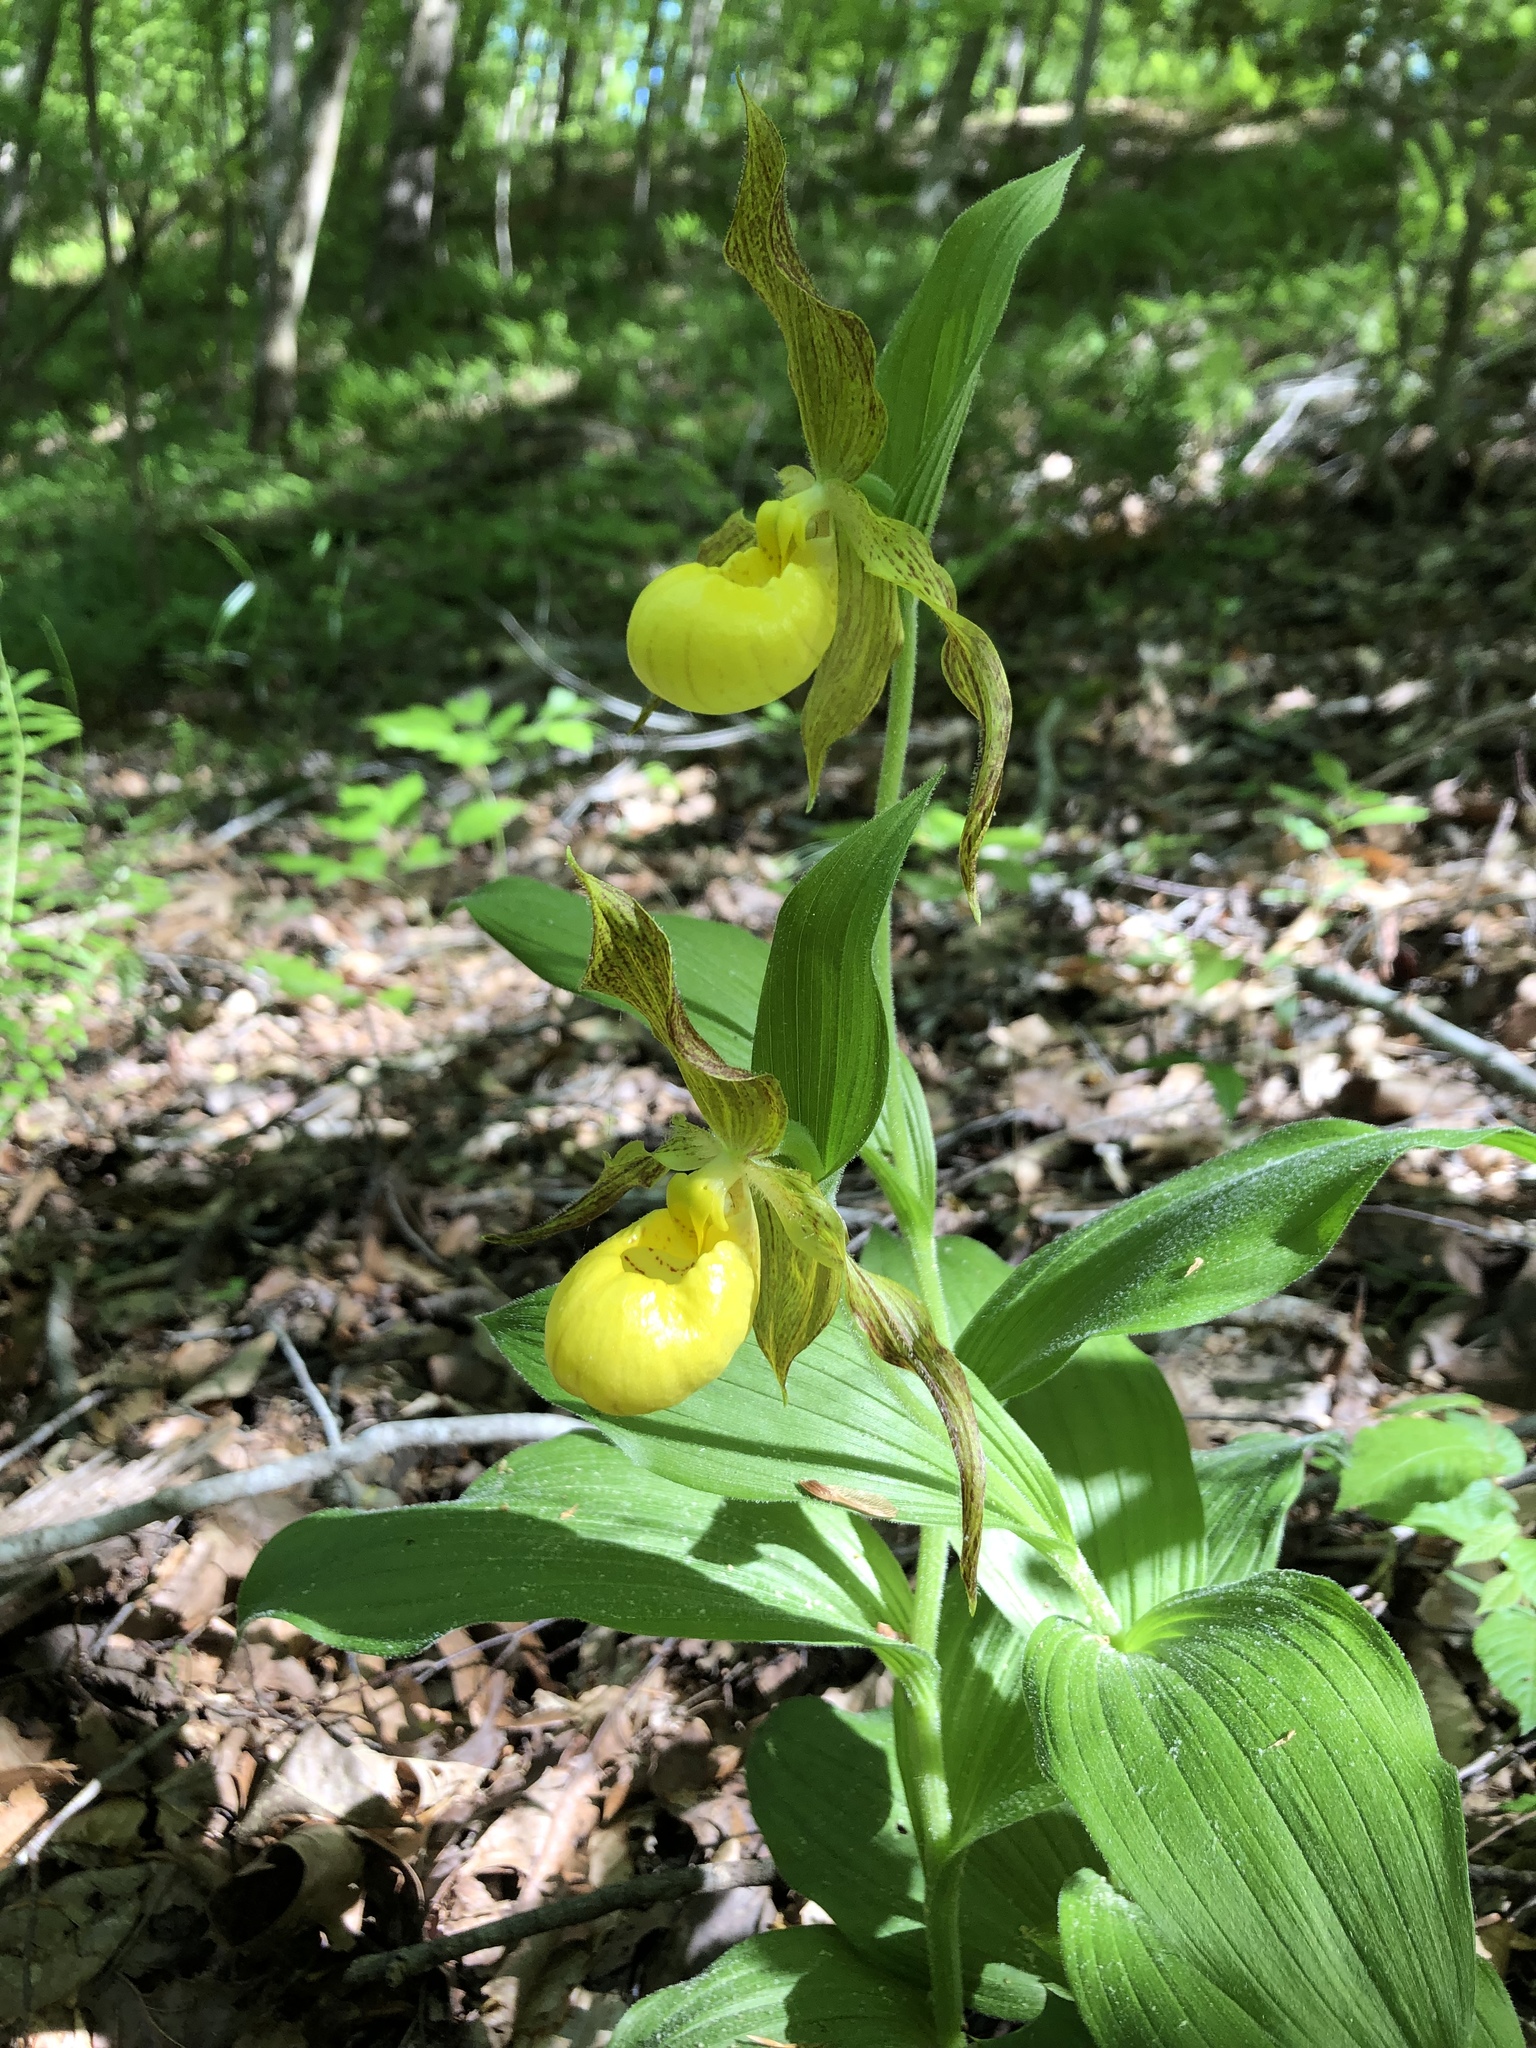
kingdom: Plantae
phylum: Tracheophyta
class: Liliopsida
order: Asparagales
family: Orchidaceae
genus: Cypripedium
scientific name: Cypripedium parviflorum
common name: American yellow lady's-slipper
